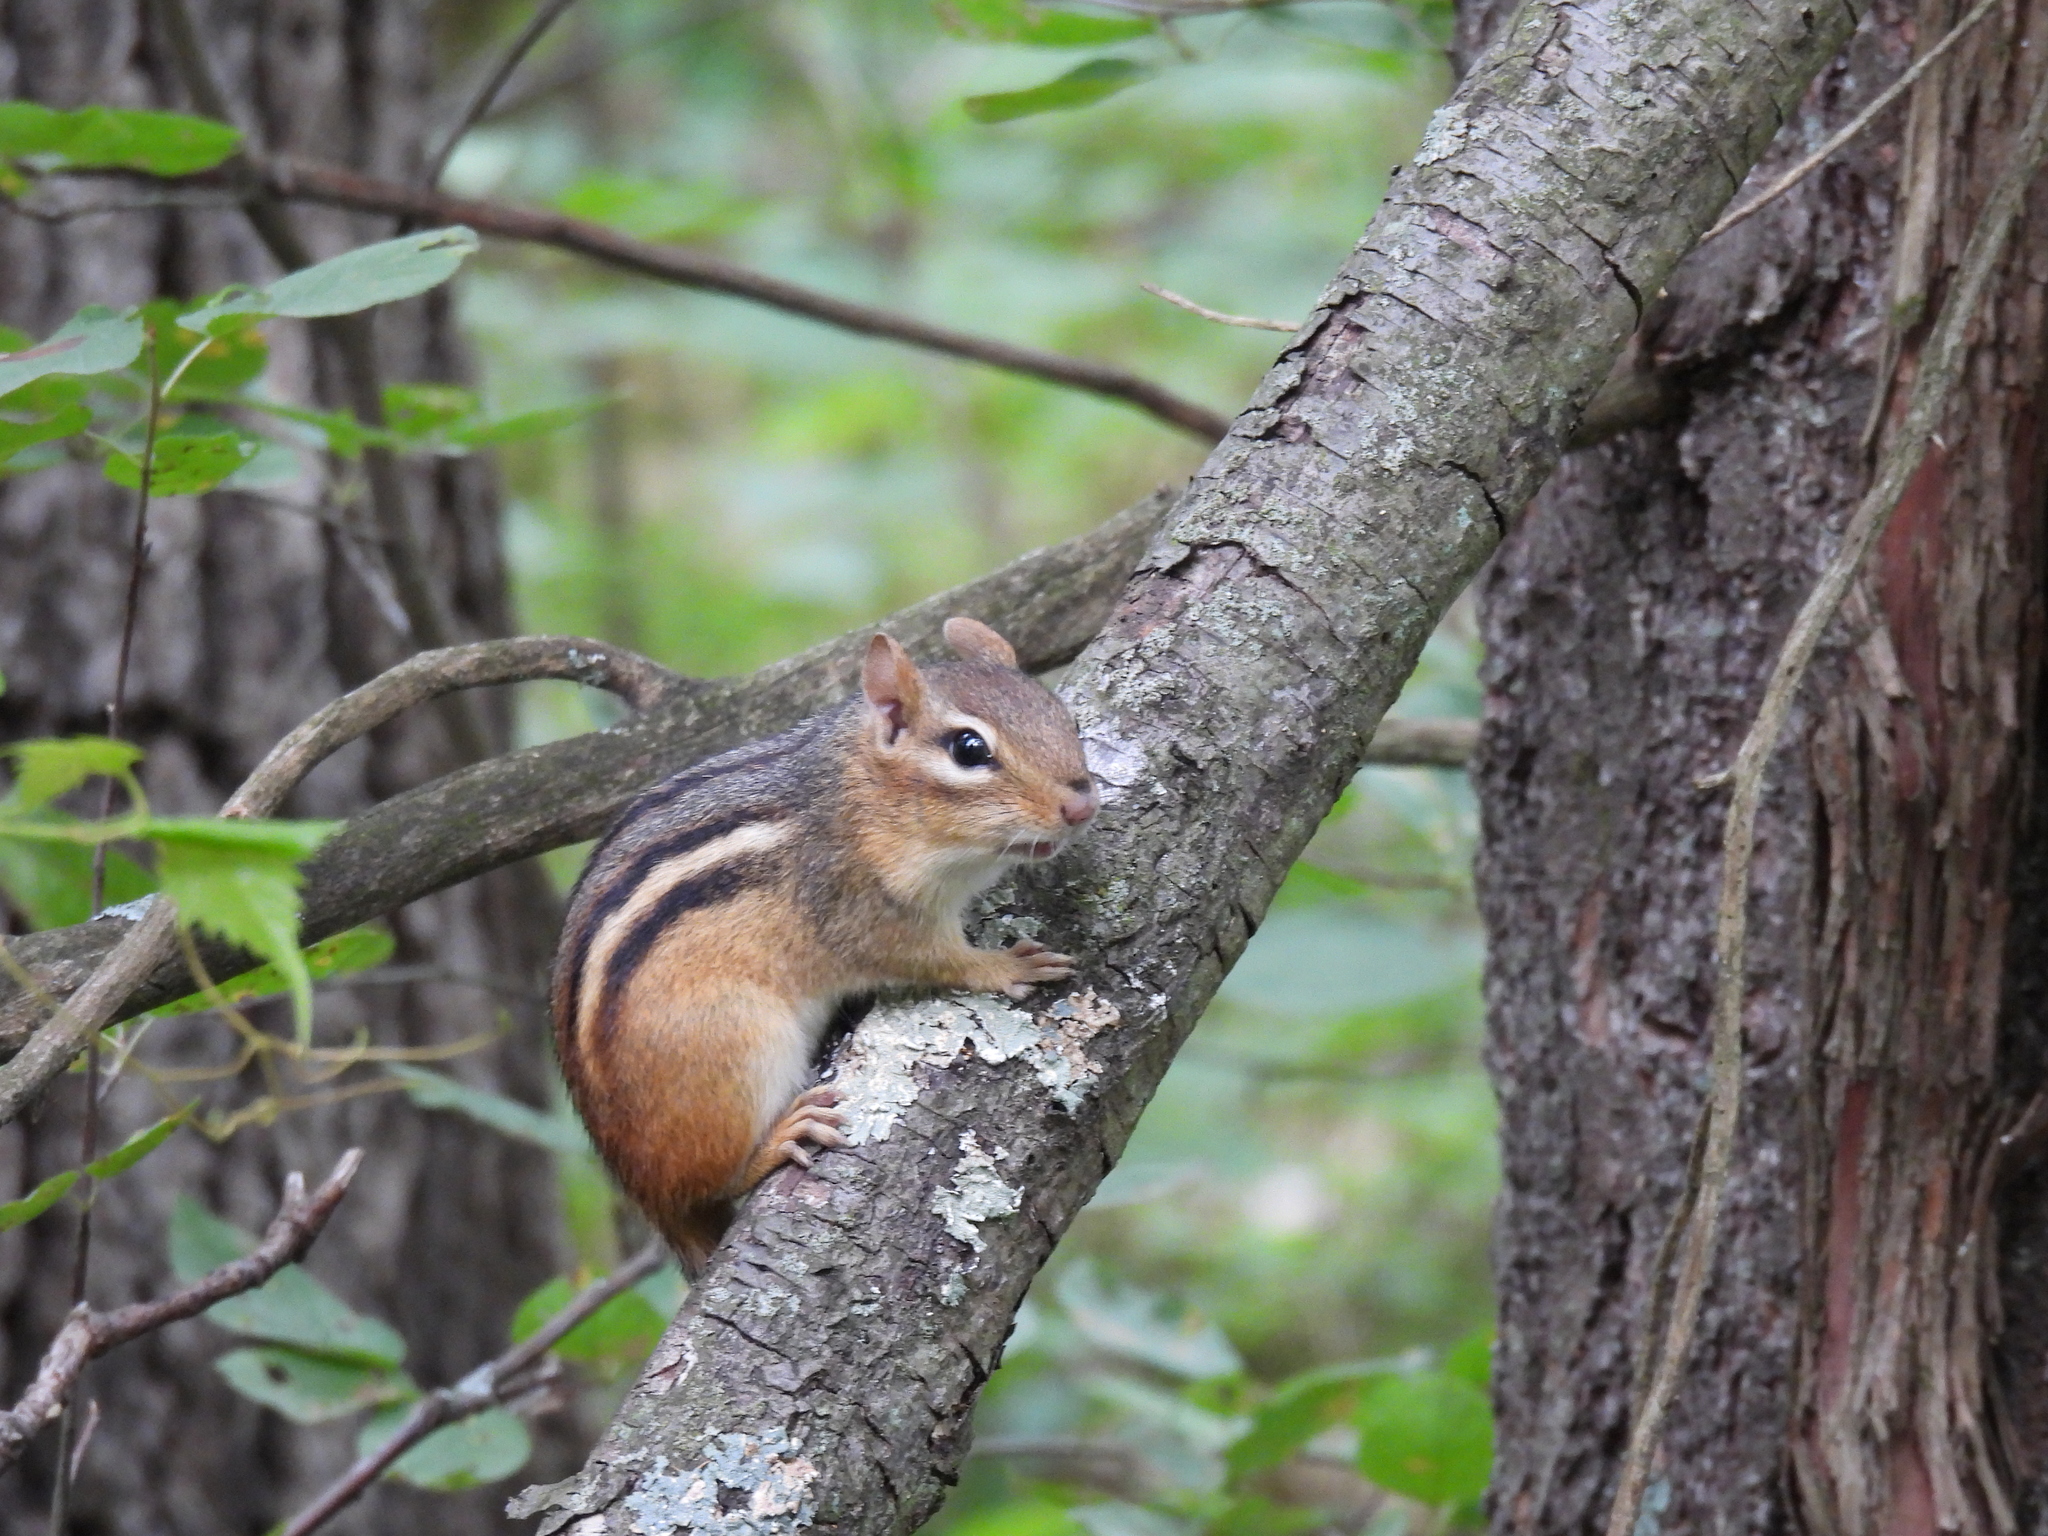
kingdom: Animalia
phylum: Chordata
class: Mammalia
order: Rodentia
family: Sciuridae
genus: Tamias
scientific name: Tamias striatus
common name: Eastern chipmunk
